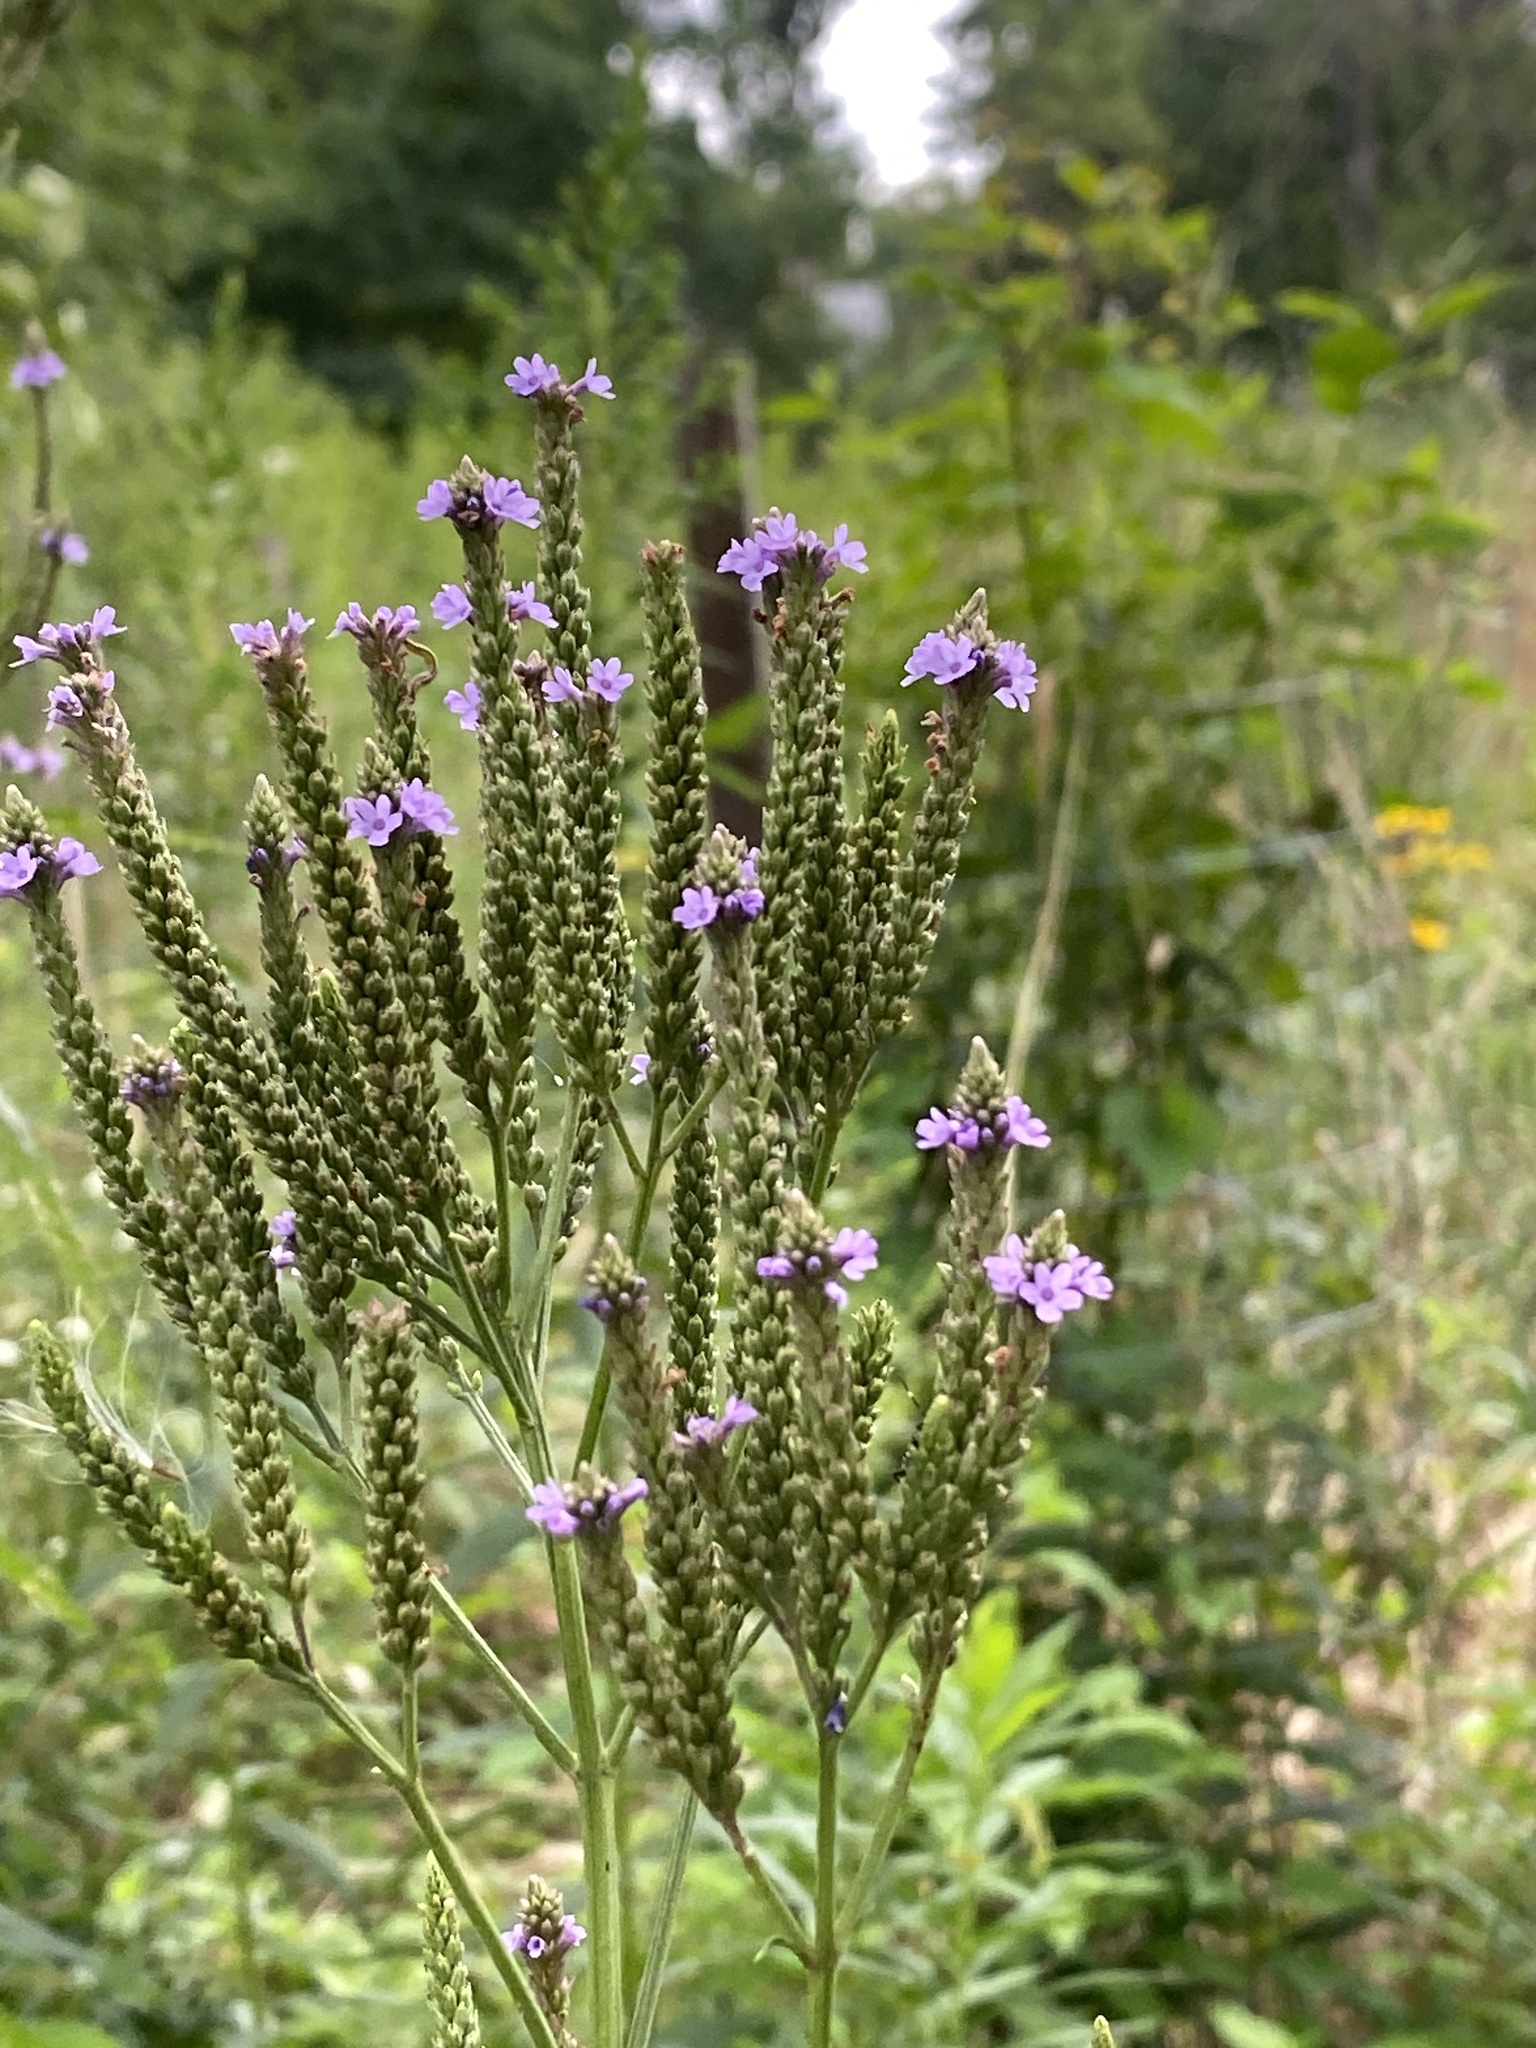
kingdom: Plantae
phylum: Tracheophyta
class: Magnoliopsida
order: Lamiales
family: Verbenaceae
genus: Verbena
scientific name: Verbena hastata
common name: American blue vervain
